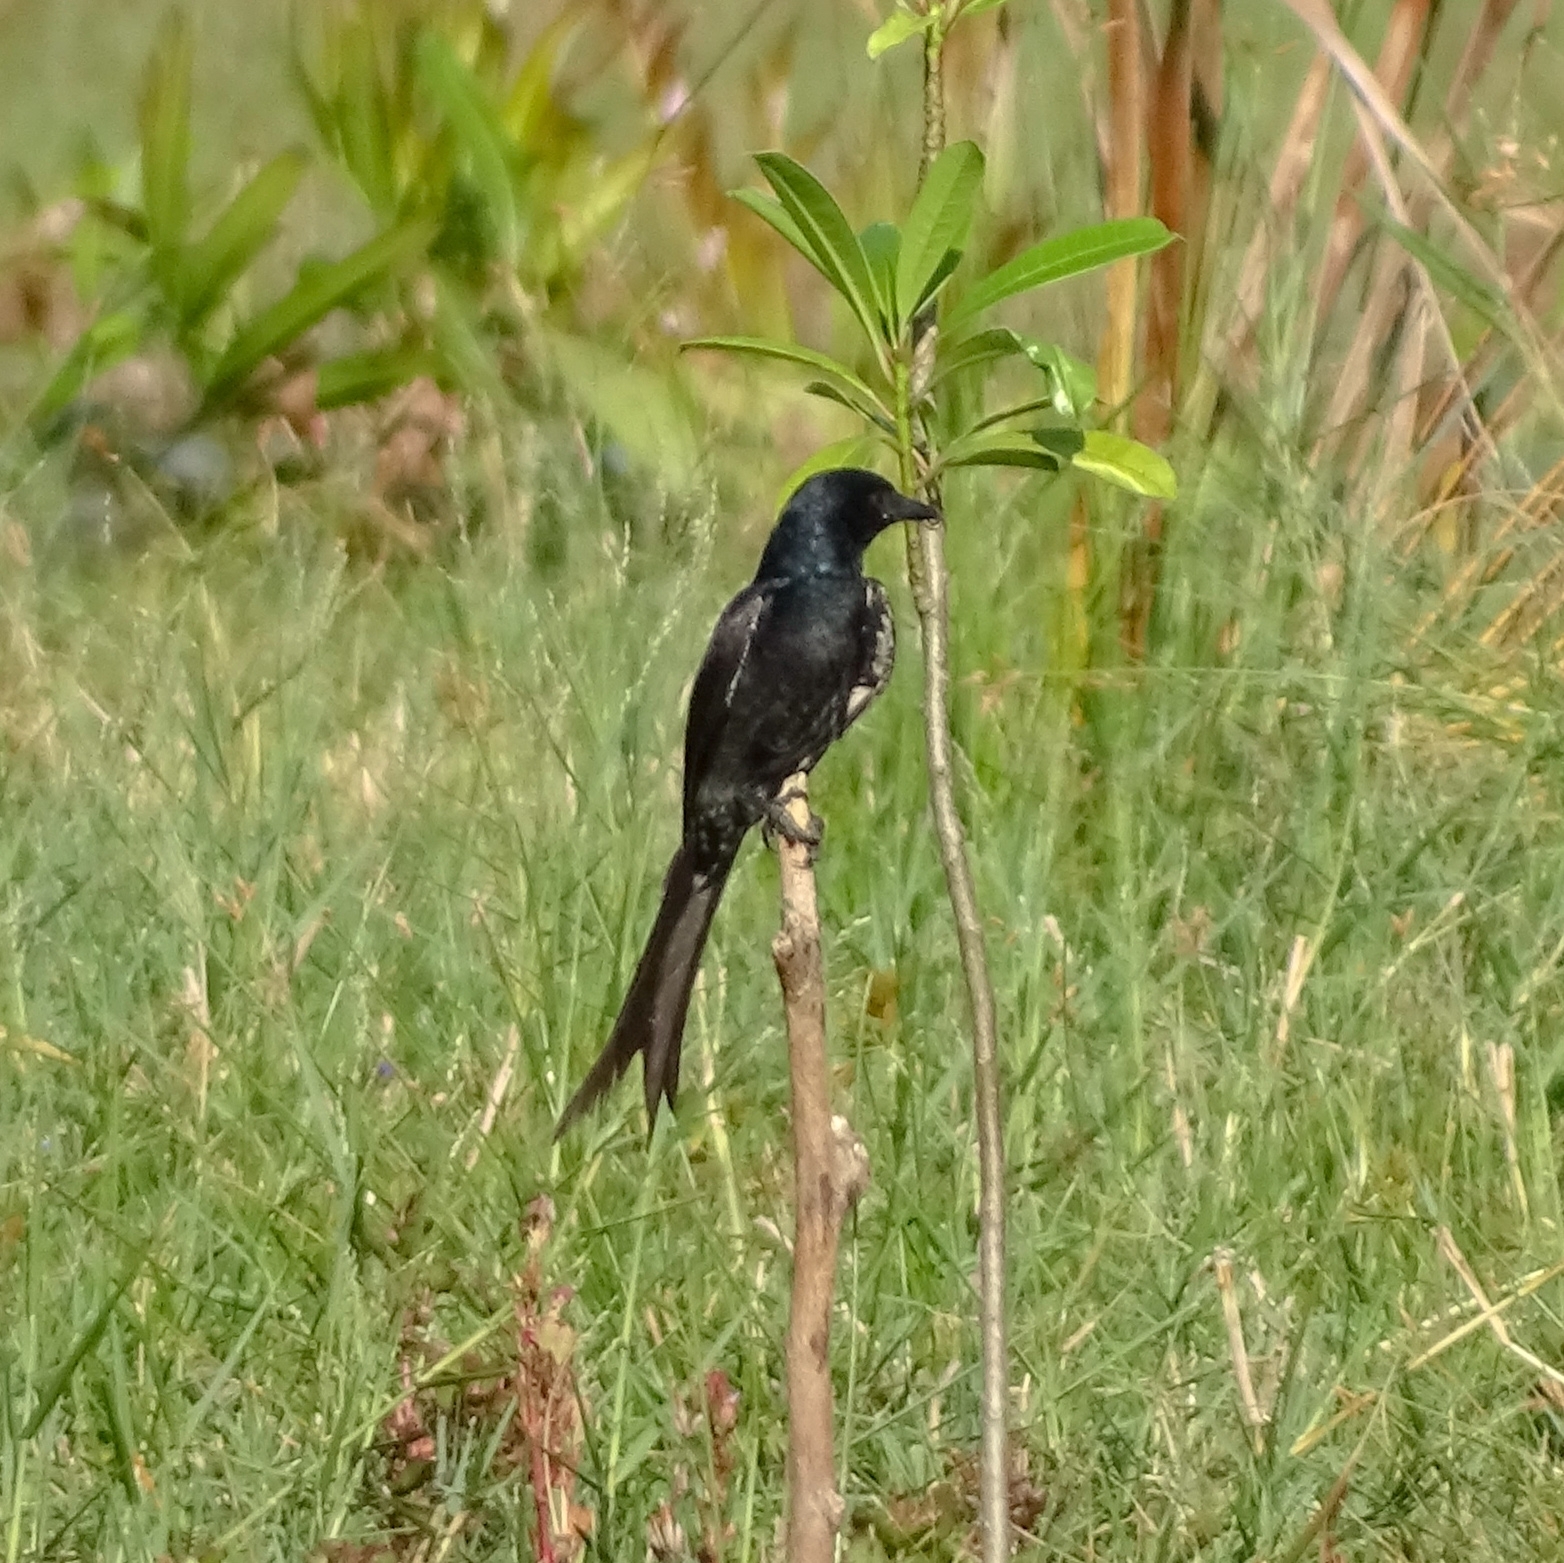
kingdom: Animalia
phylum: Chordata
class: Aves
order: Passeriformes
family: Dicruridae
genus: Dicrurus
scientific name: Dicrurus macrocercus
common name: Black drongo
